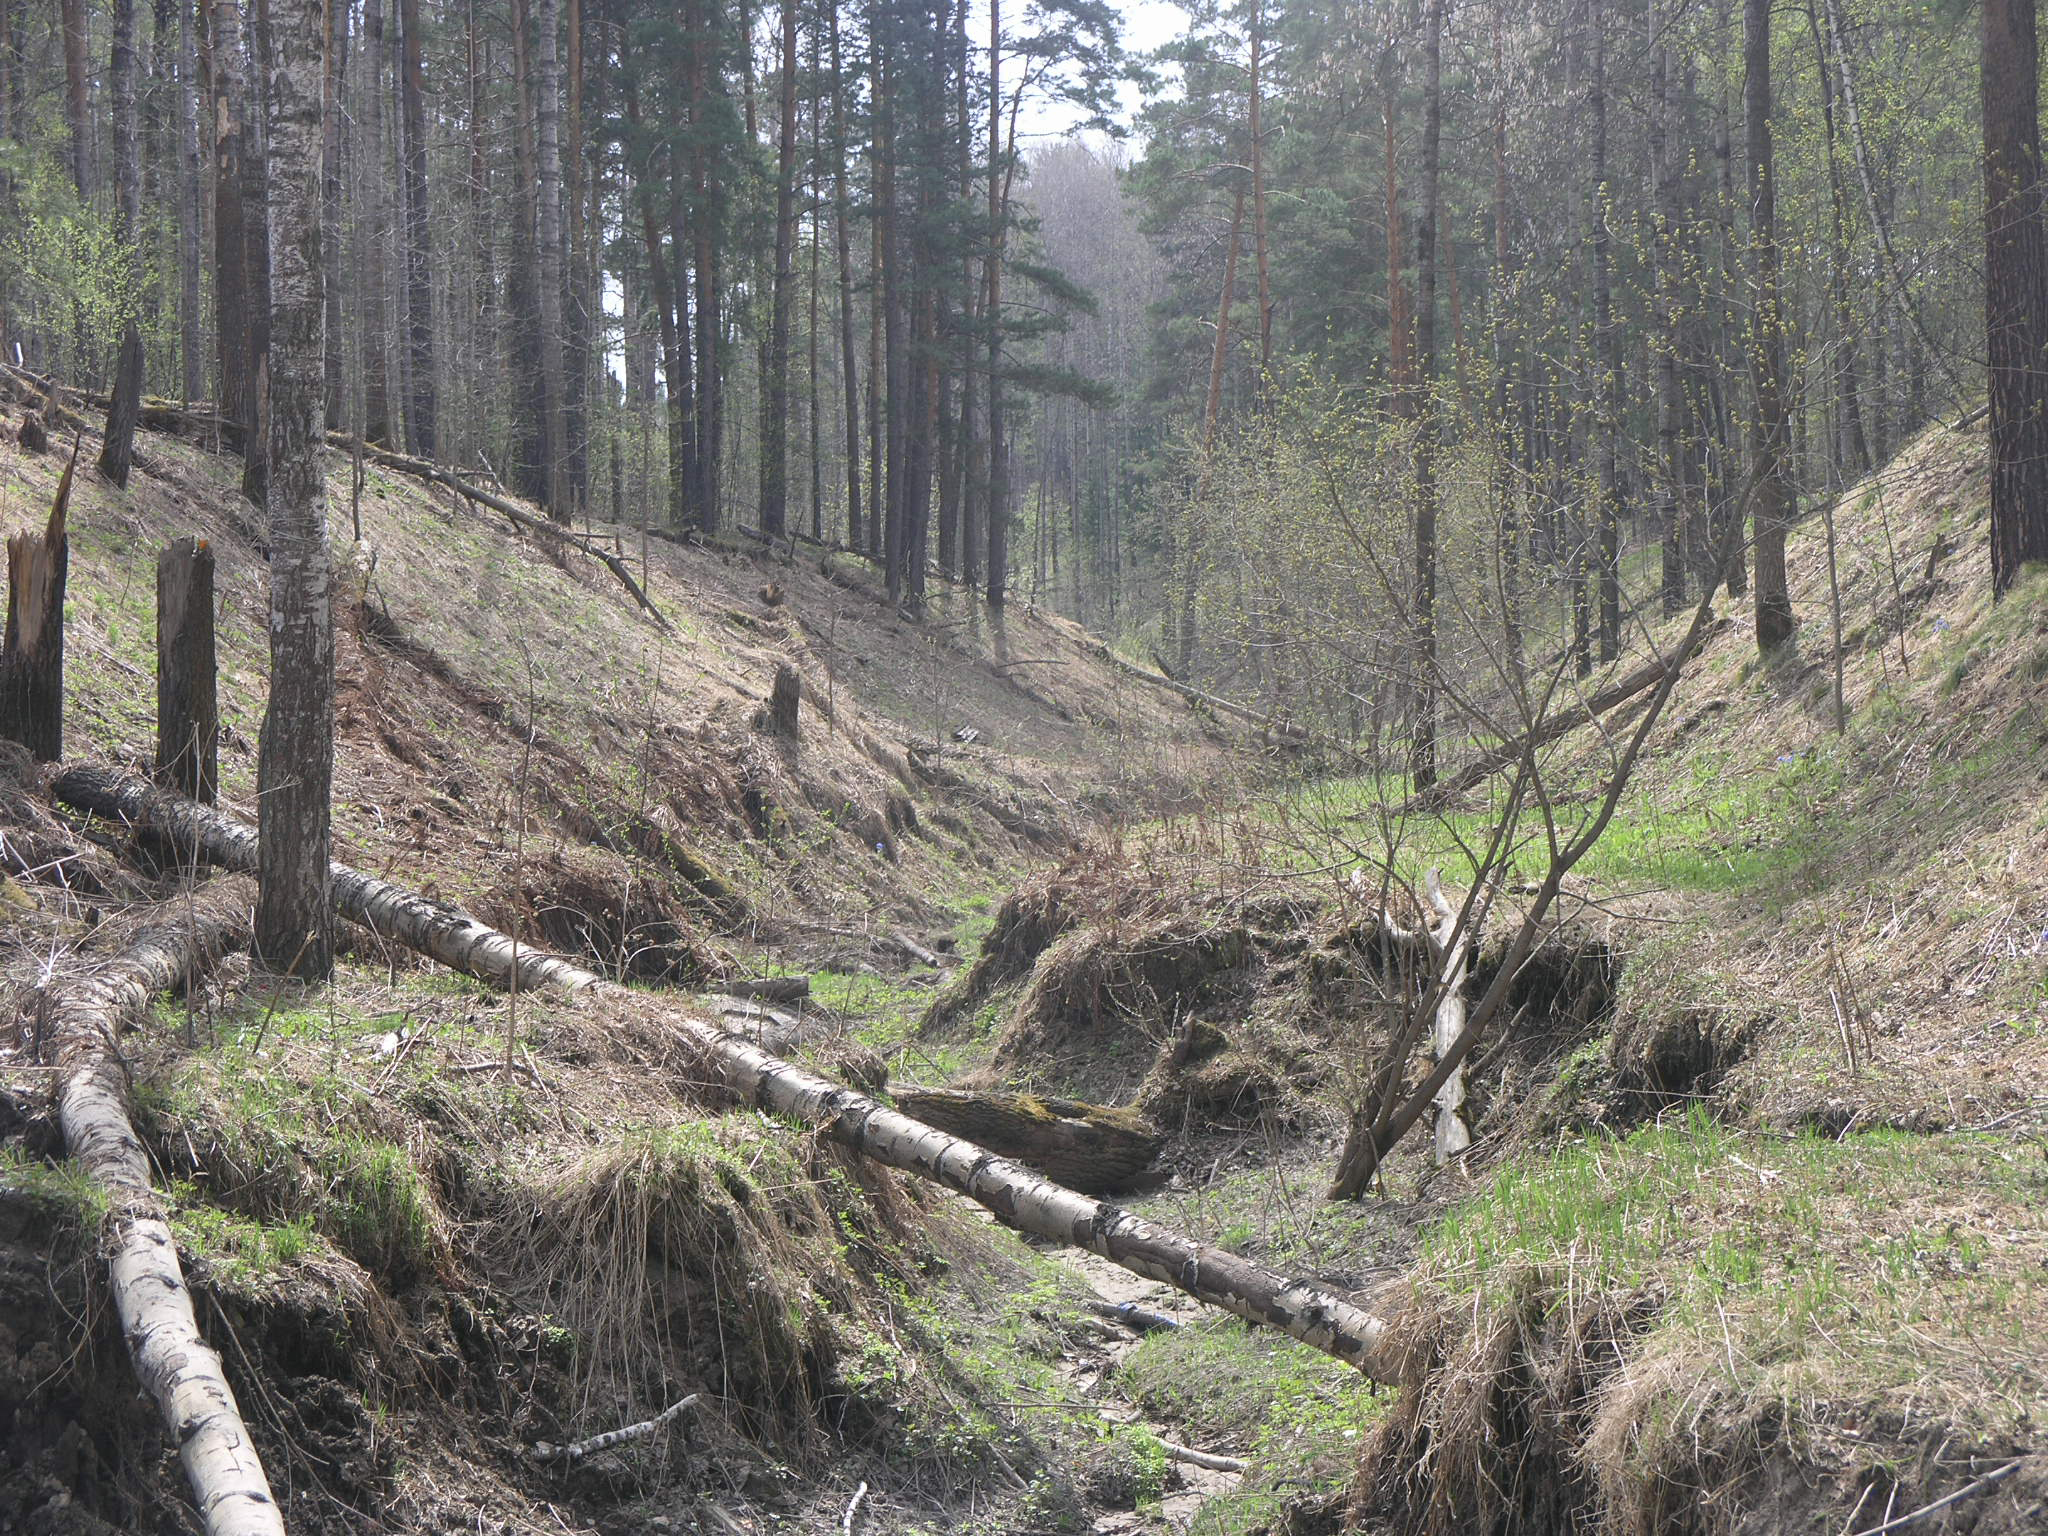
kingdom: Plantae
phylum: Tracheophyta
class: Magnoliopsida
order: Malpighiales
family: Salicaceae
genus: Populus
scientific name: Populus tremula
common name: European aspen
